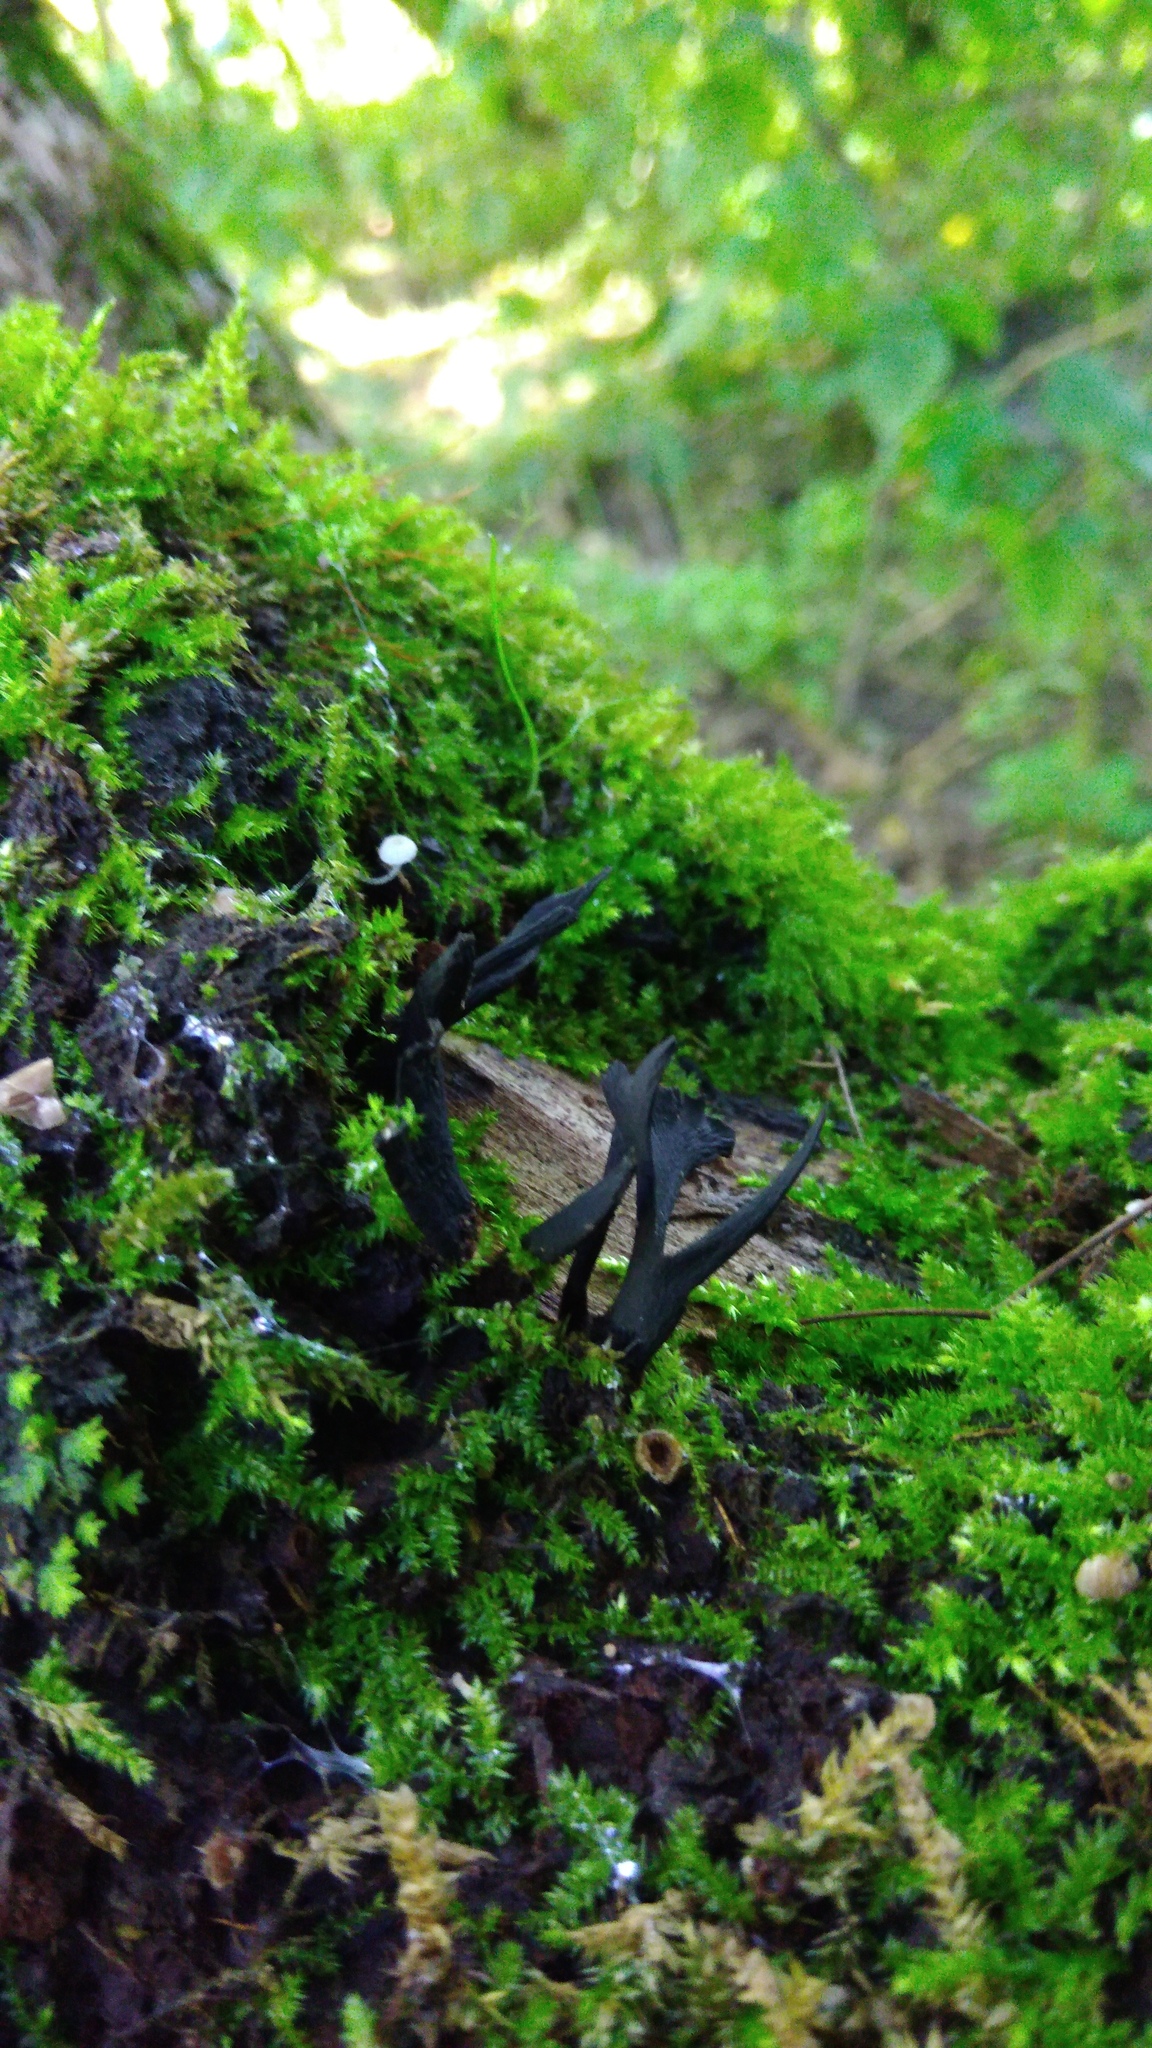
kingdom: Fungi
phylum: Ascomycota
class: Sordariomycetes
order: Xylariales
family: Xylariaceae
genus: Xylaria
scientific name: Xylaria hypoxylon
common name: Candle-snuff fungus
